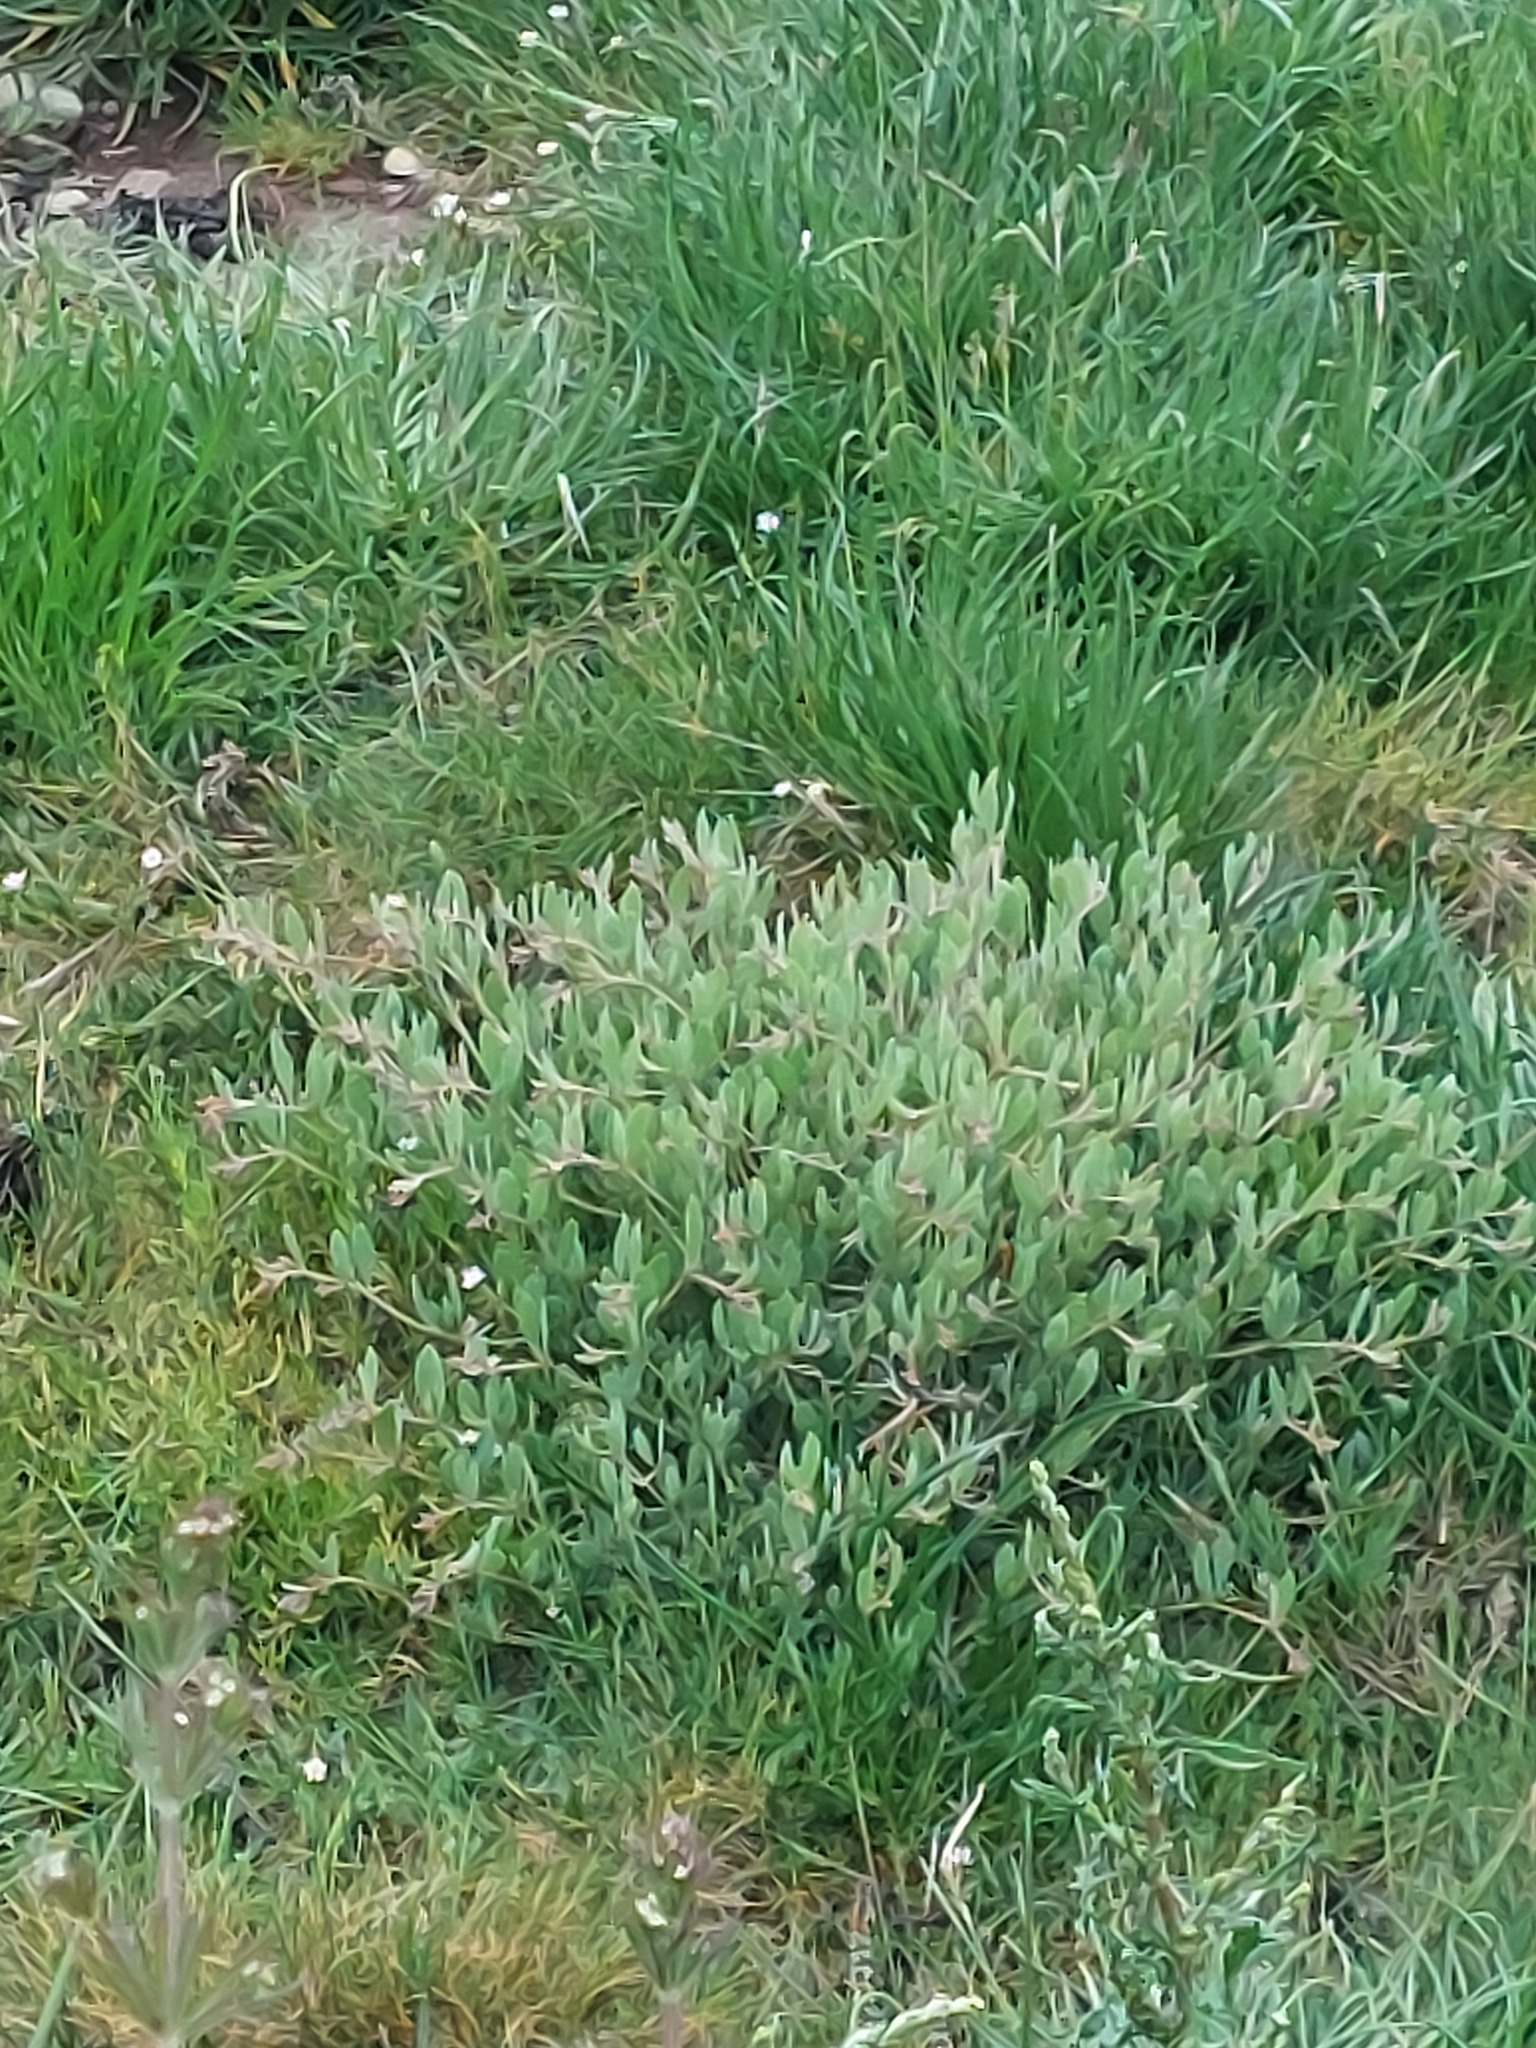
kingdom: Plantae
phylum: Tracheophyta
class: Magnoliopsida
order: Caryophyllales
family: Amaranthaceae
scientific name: Amaranthaceae
